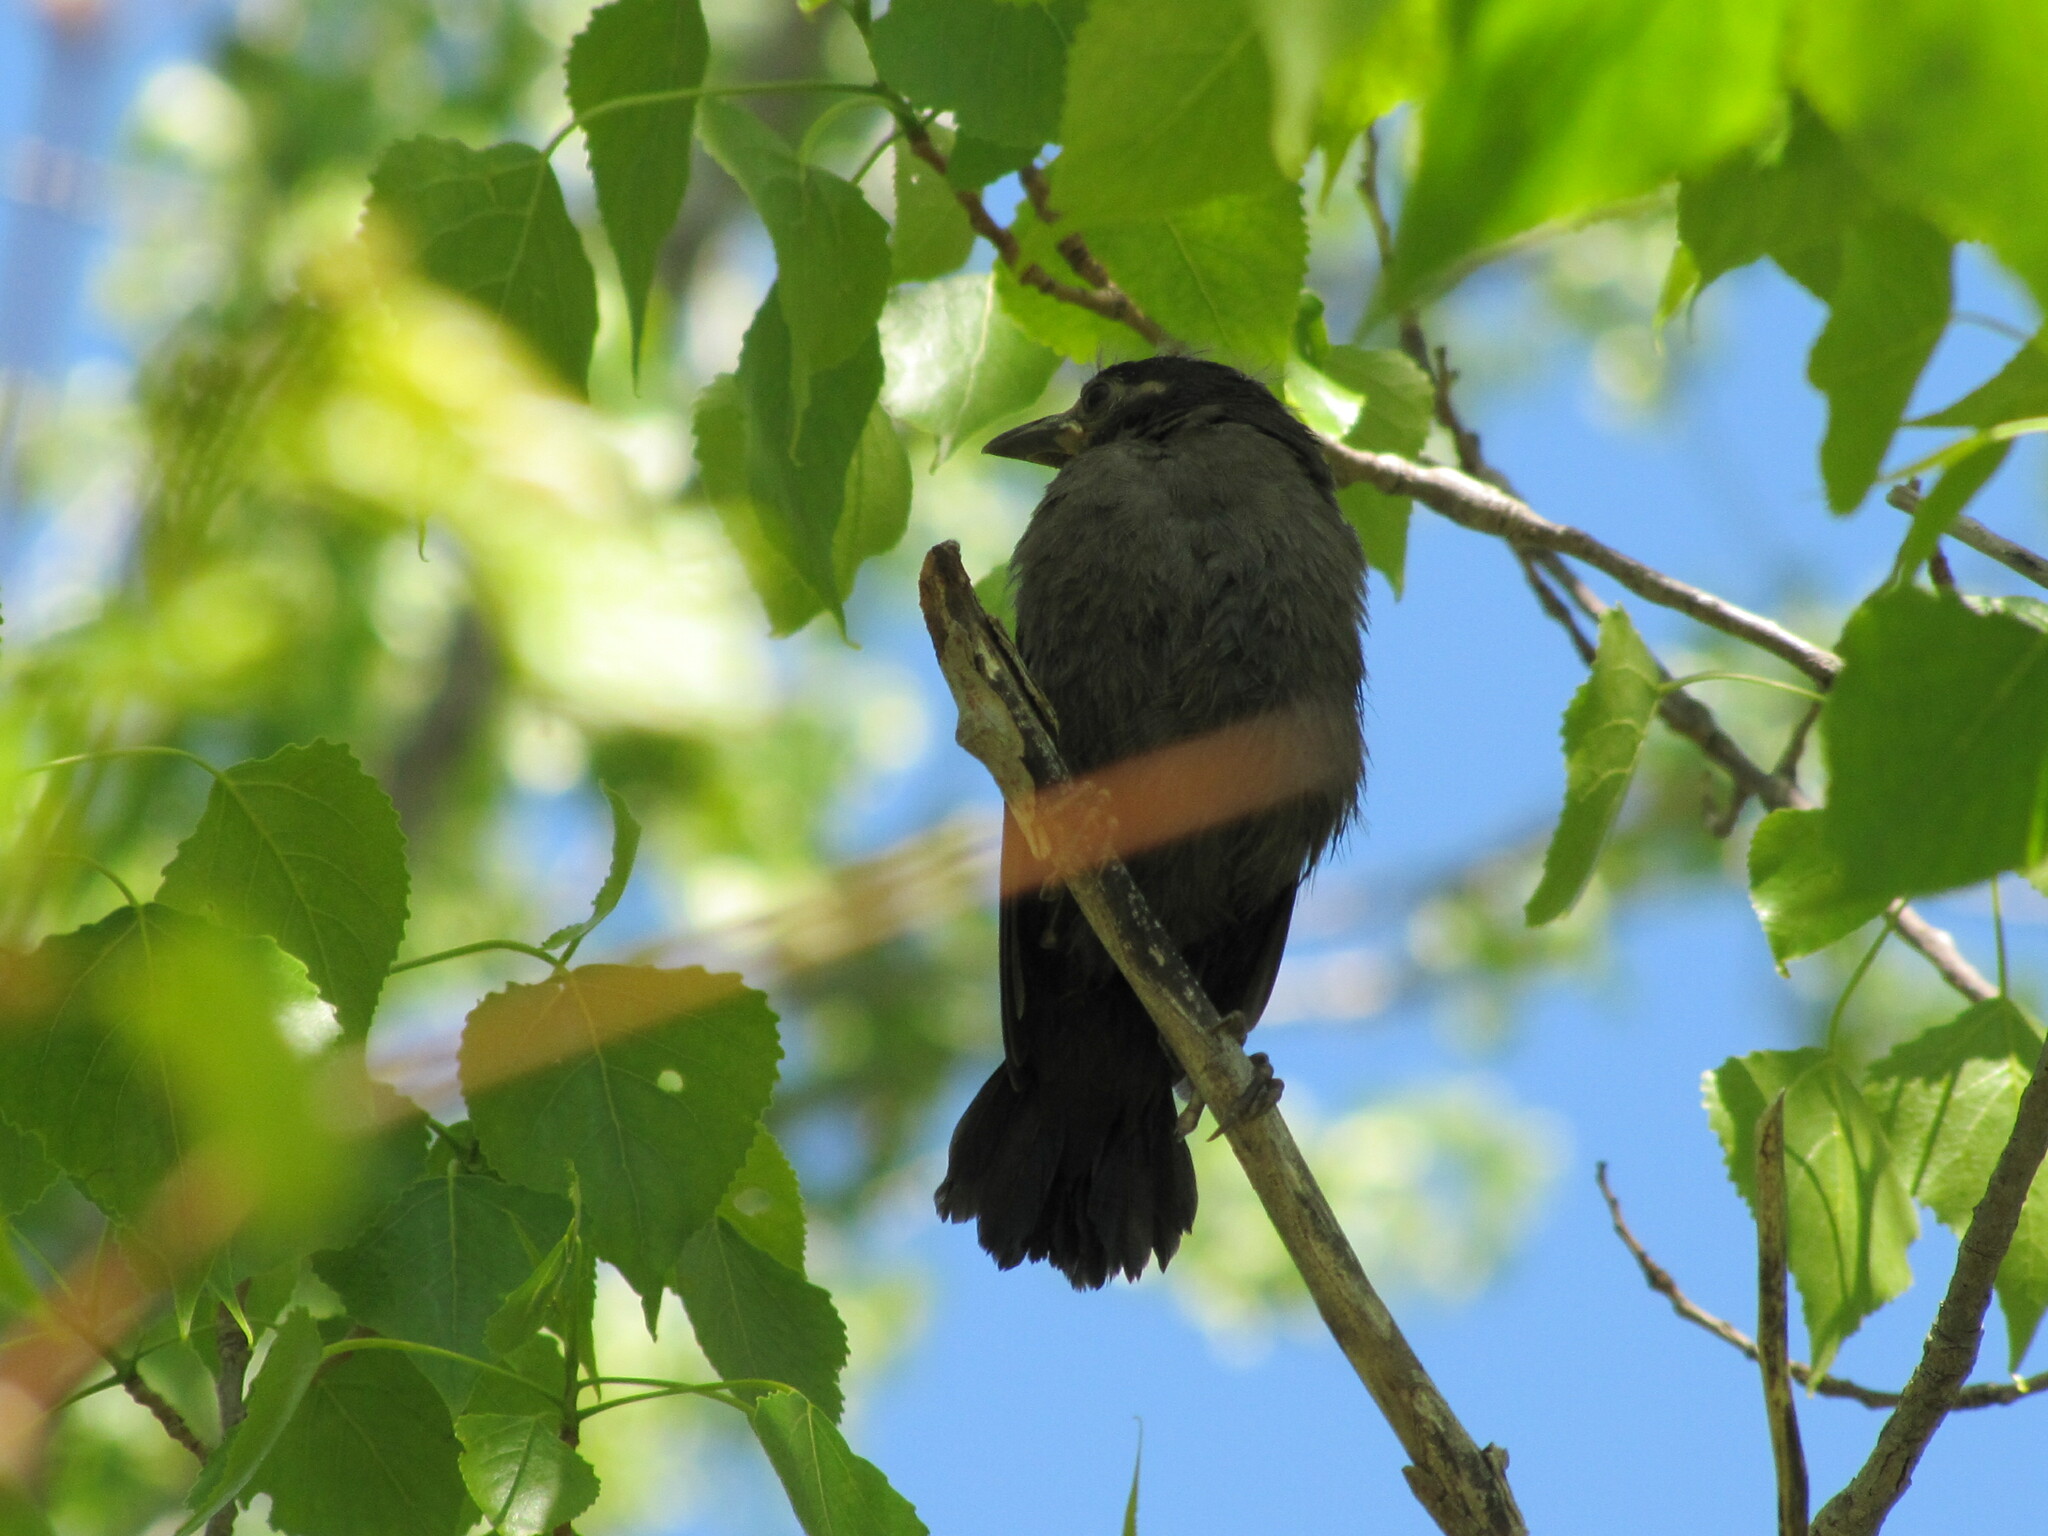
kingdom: Animalia
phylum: Chordata
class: Aves
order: Passeriformes
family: Icteridae
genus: Quiscalus
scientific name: Quiscalus quiscula
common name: Common grackle
